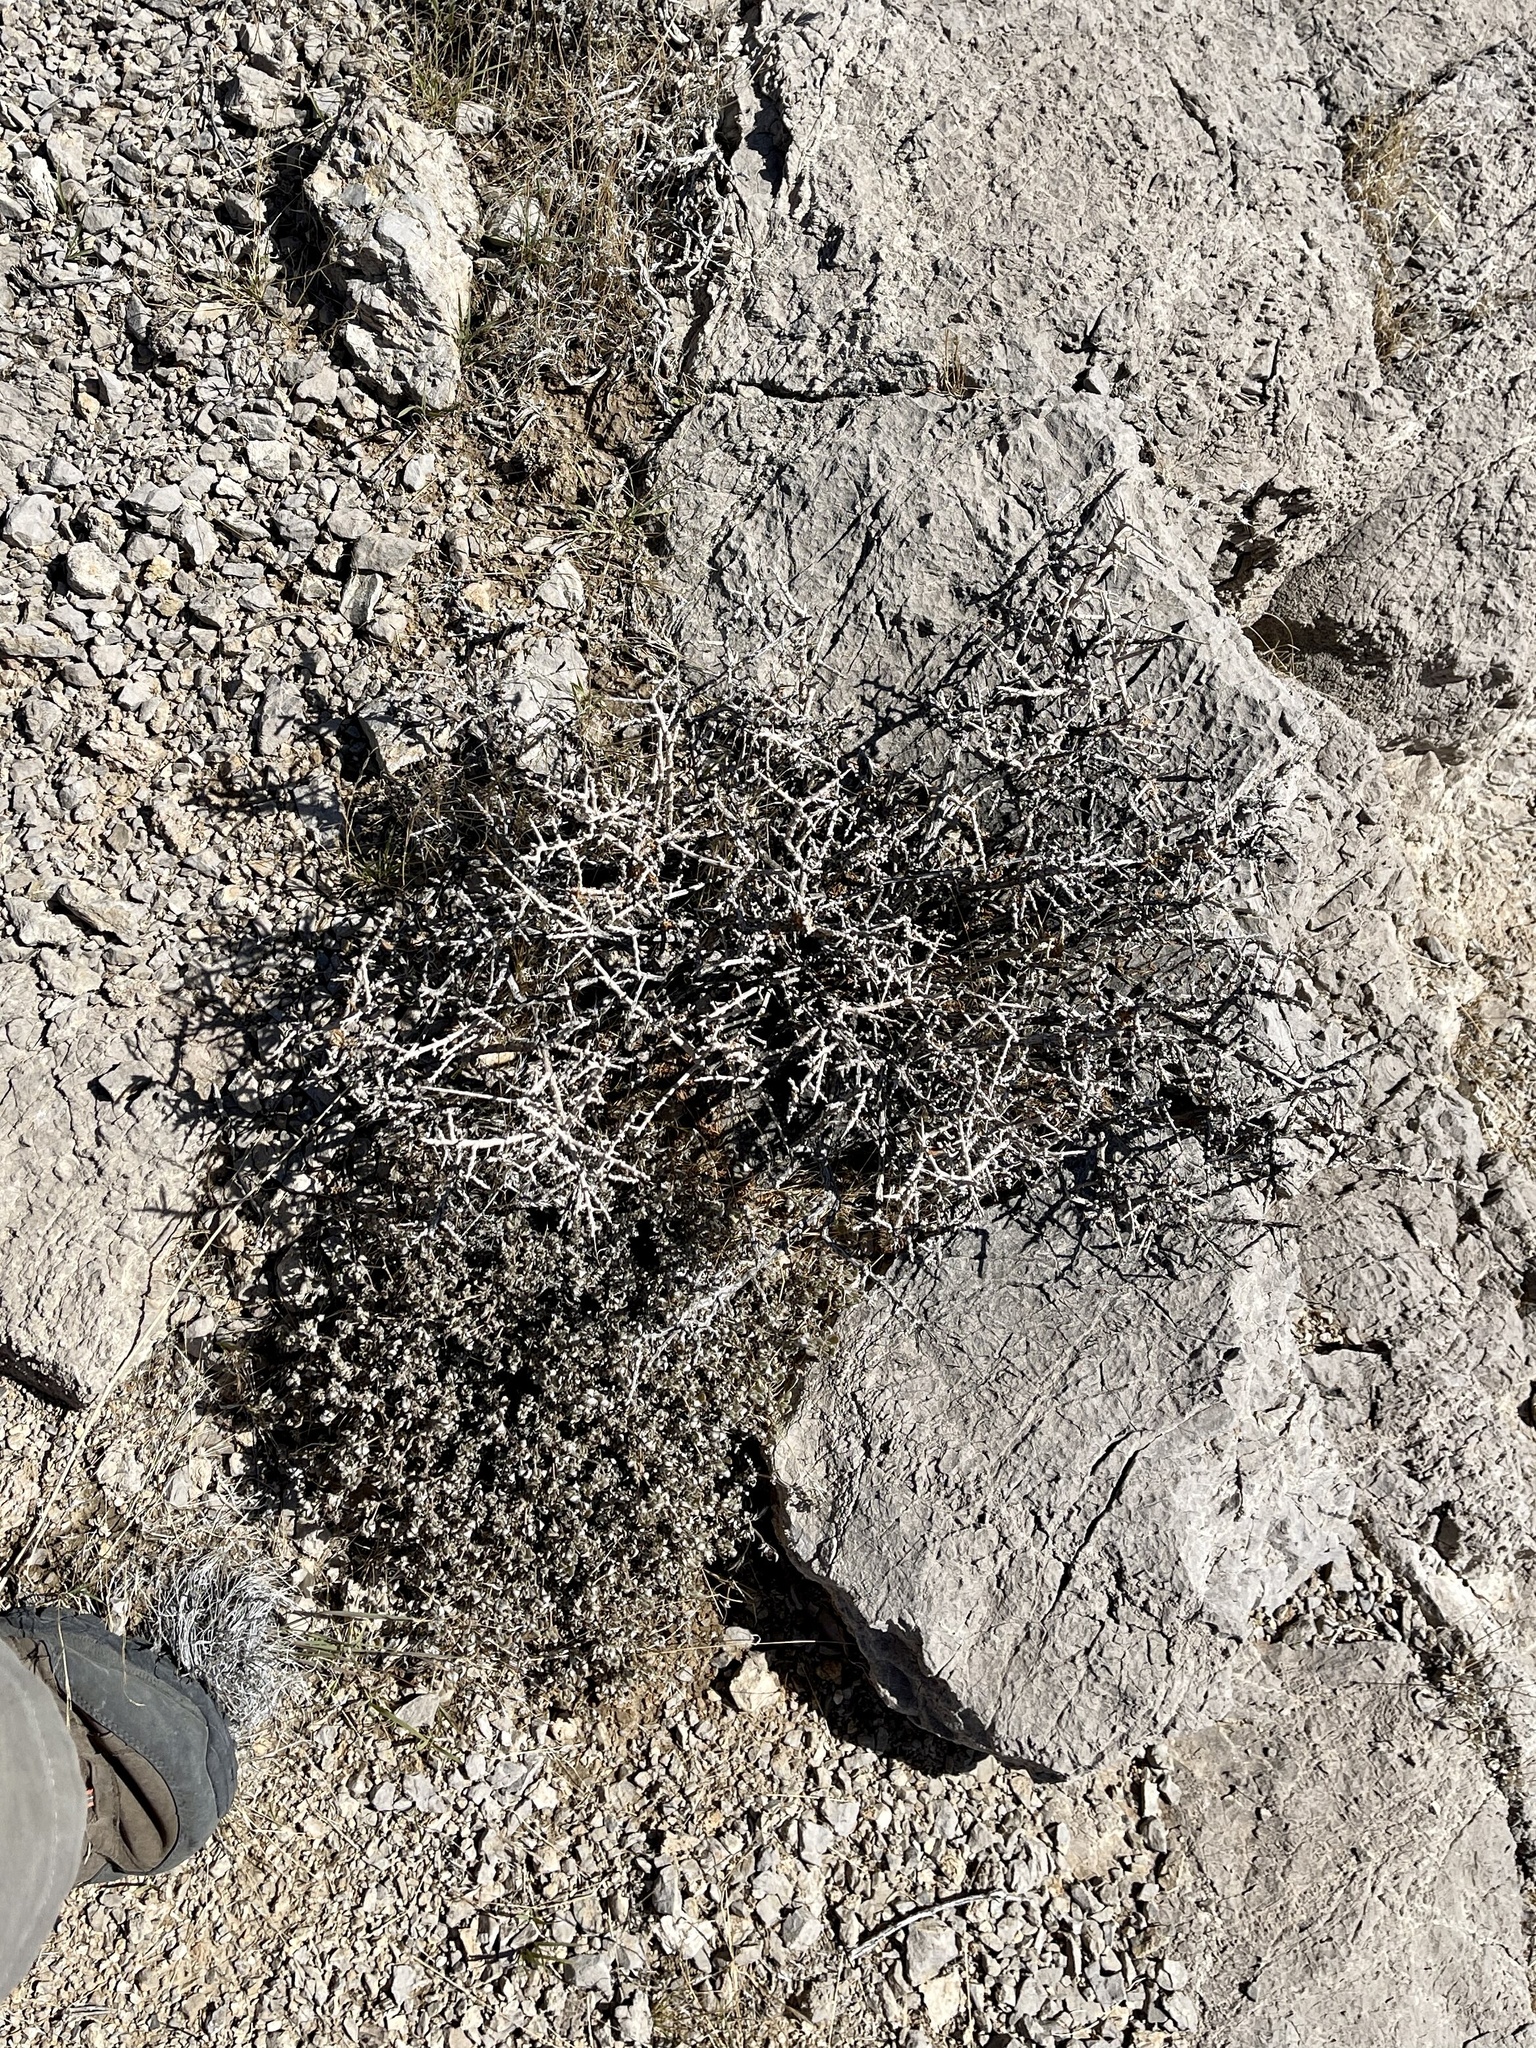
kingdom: Plantae
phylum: Tracheophyta
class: Magnoliopsida
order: Rosales
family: Rosaceae
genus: Prunus
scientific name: Prunus fasciculata
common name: Desert almond
